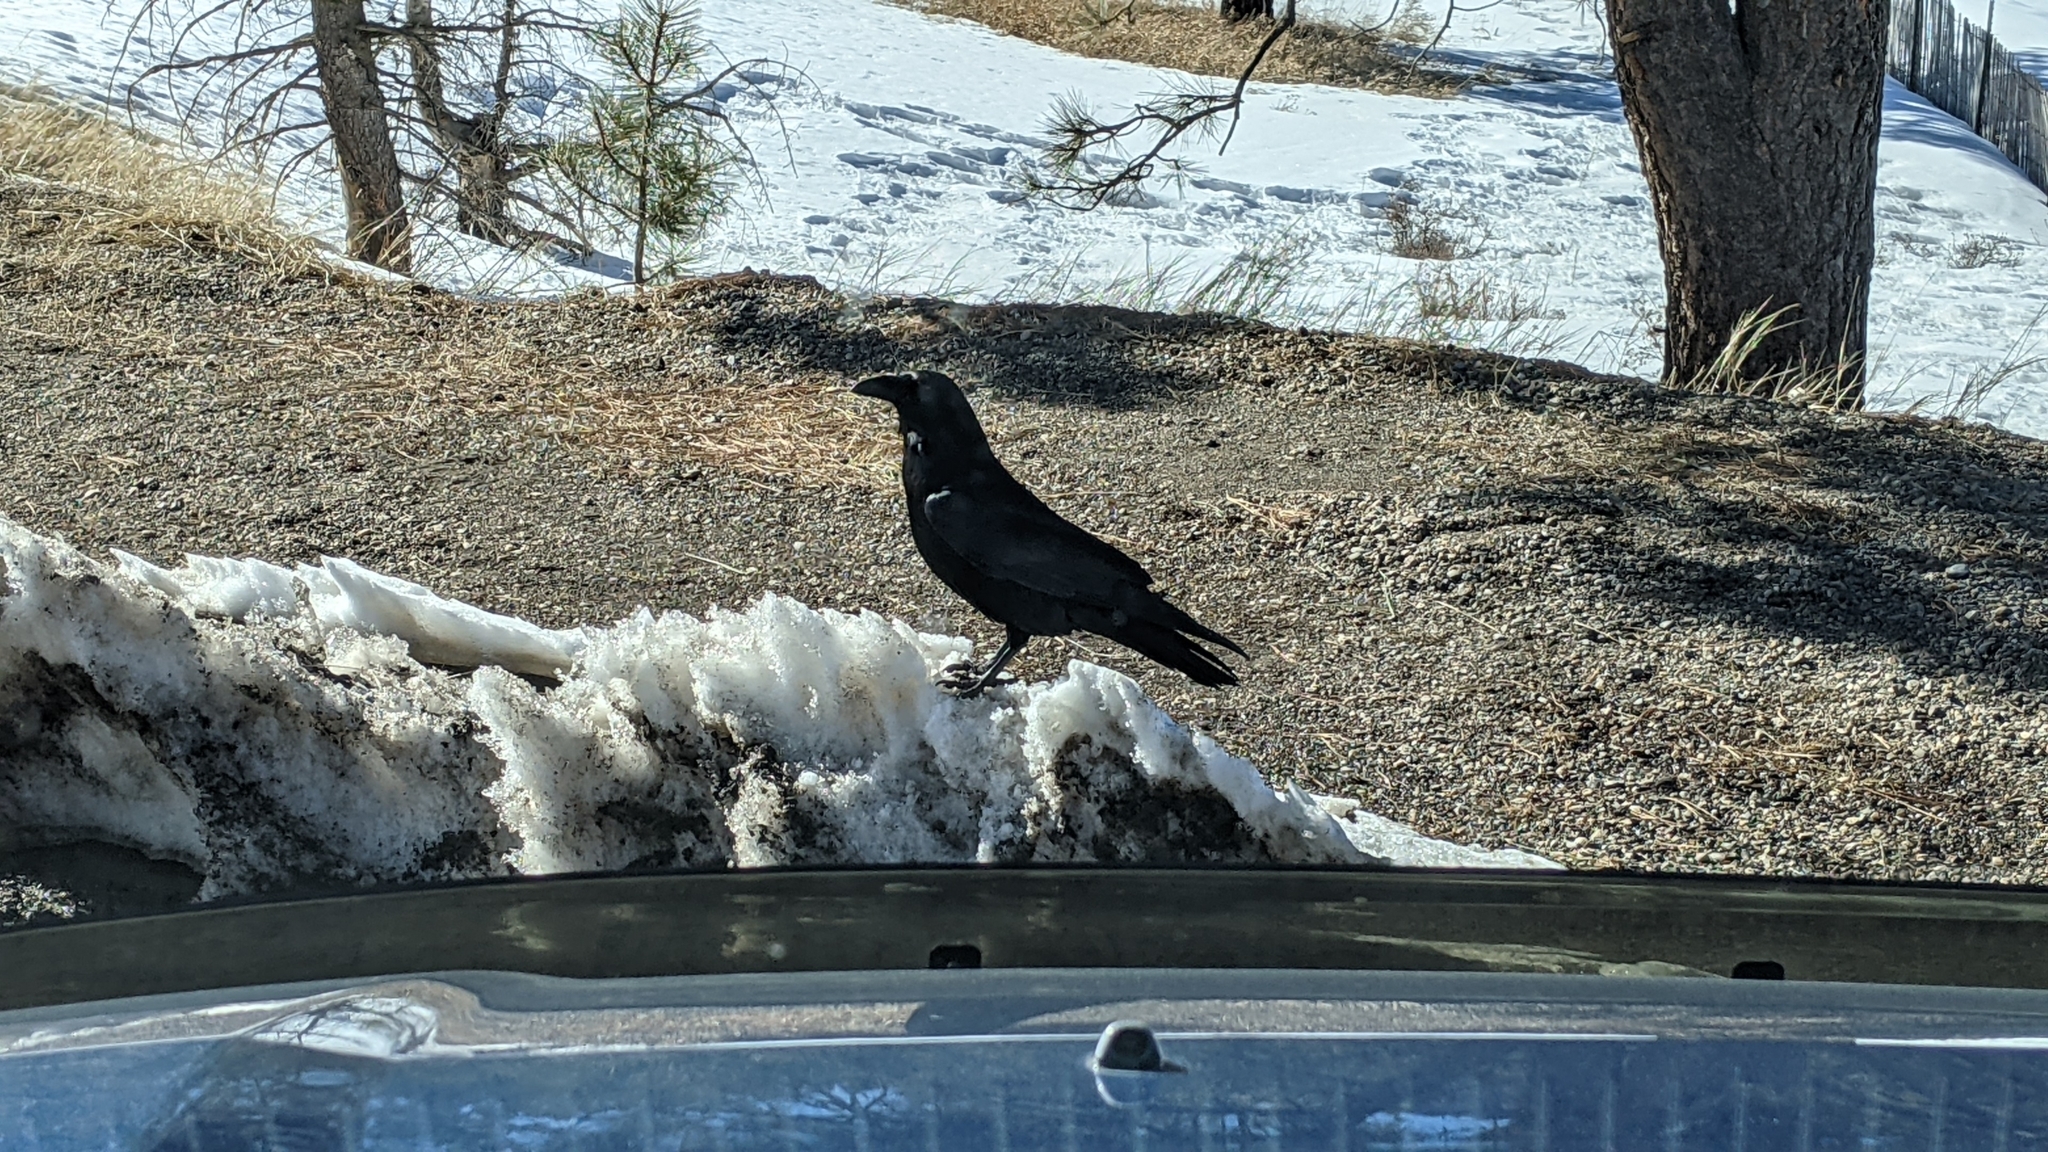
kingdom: Animalia
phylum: Chordata
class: Aves
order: Passeriformes
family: Corvidae
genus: Corvus
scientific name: Corvus corax
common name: Common raven
